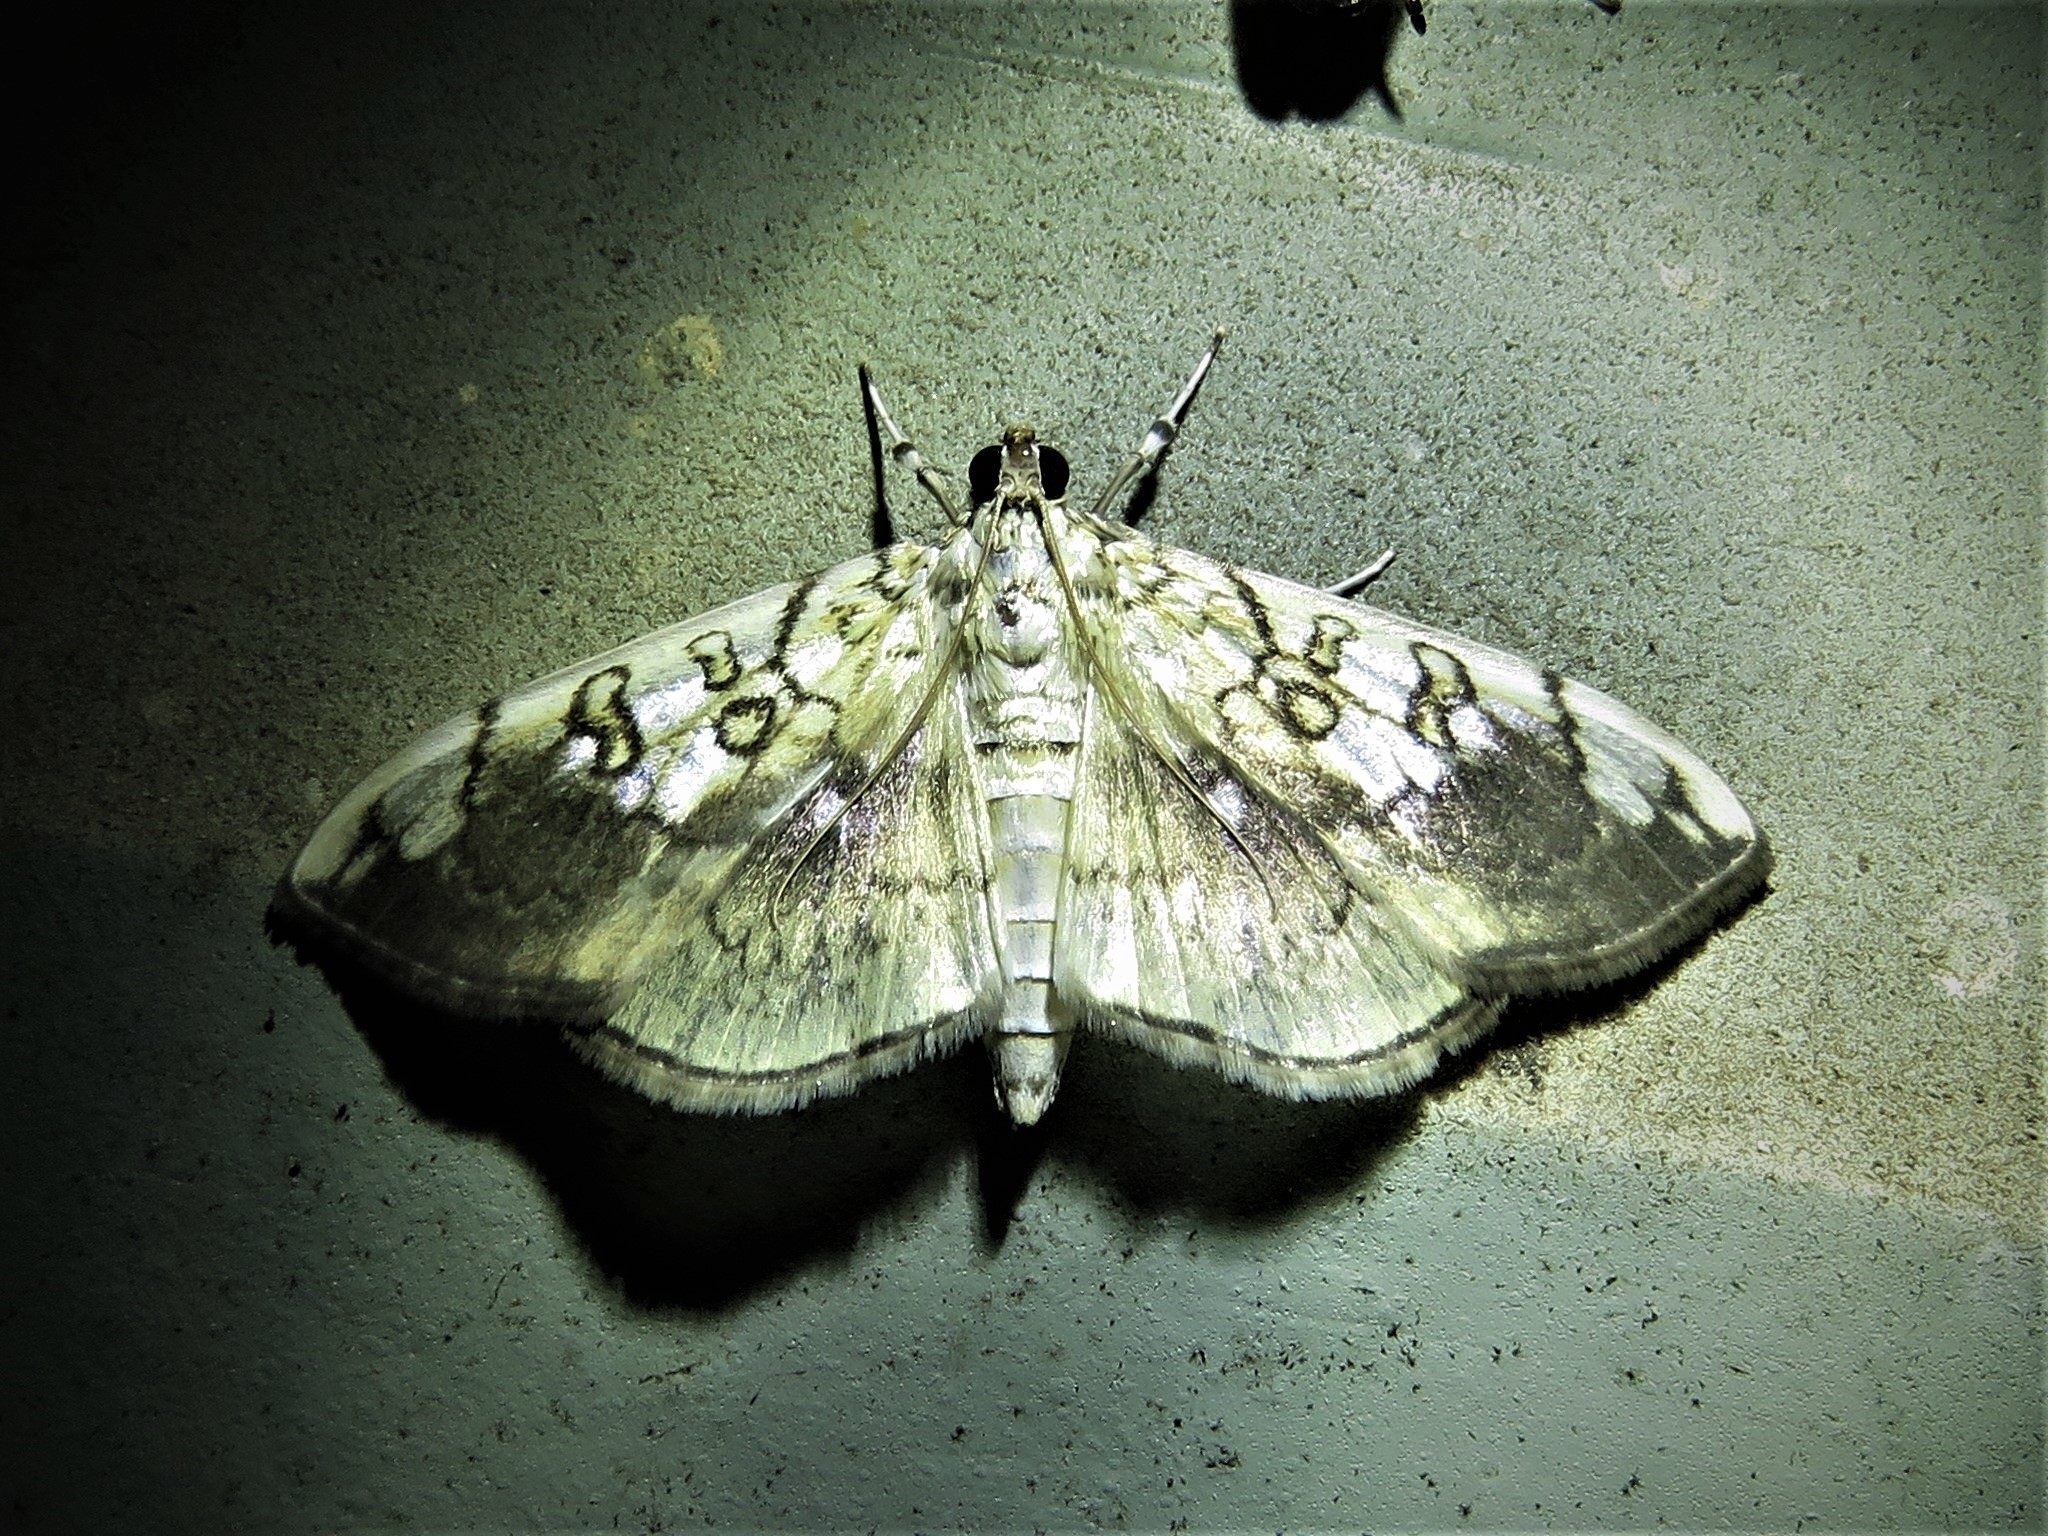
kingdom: Animalia
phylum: Arthropoda
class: Insecta
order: Lepidoptera
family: Crambidae
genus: Pantographa
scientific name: Pantographa limata
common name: Basswood leafroller moth
